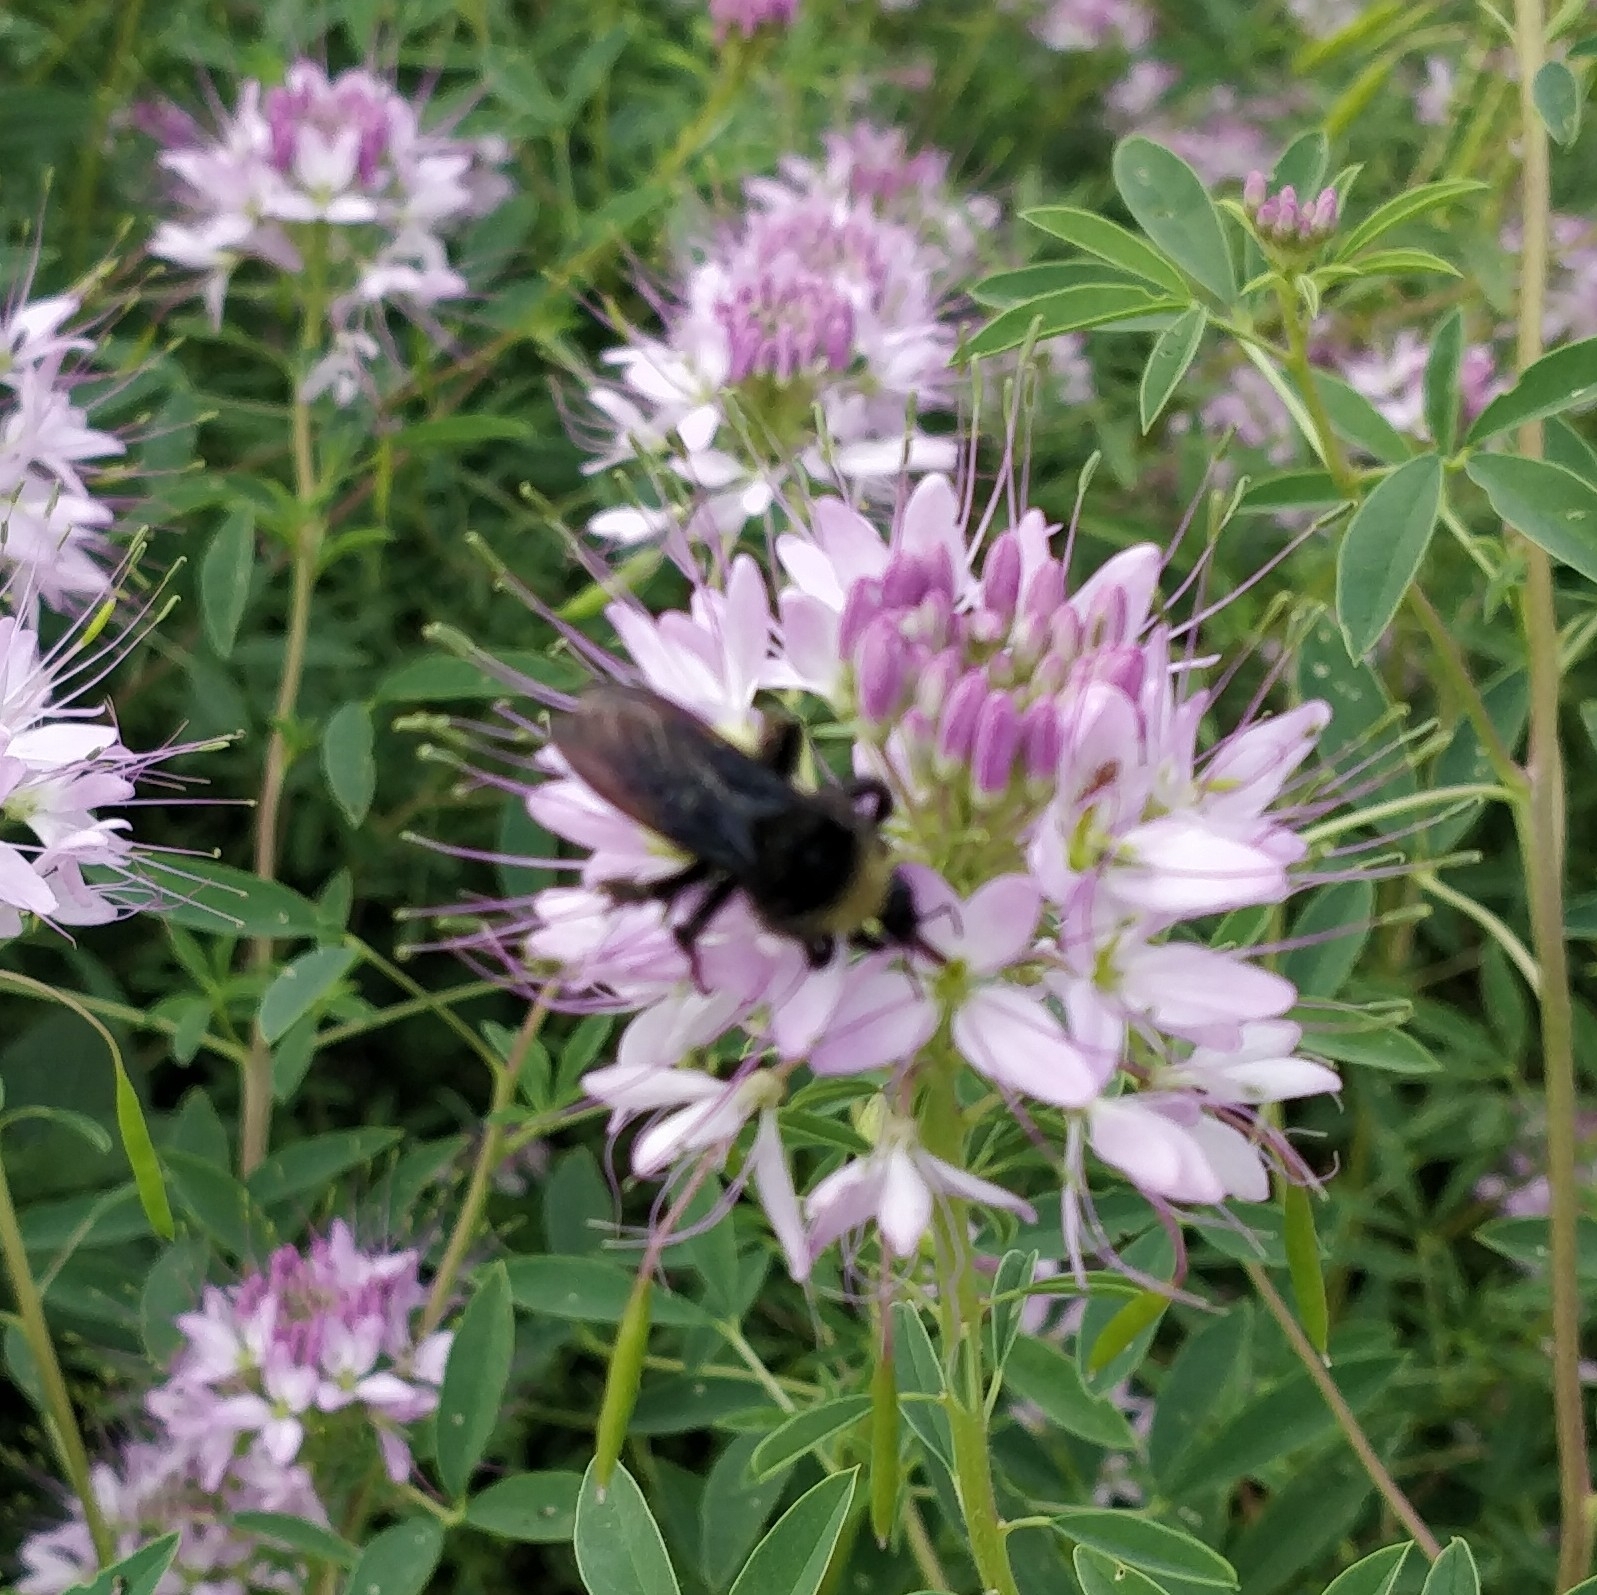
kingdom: Animalia
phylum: Arthropoda
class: Insecta
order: Hymenoptera
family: Apidae
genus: Bombus
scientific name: Bombus pensylvanicus
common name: Bumble bee
